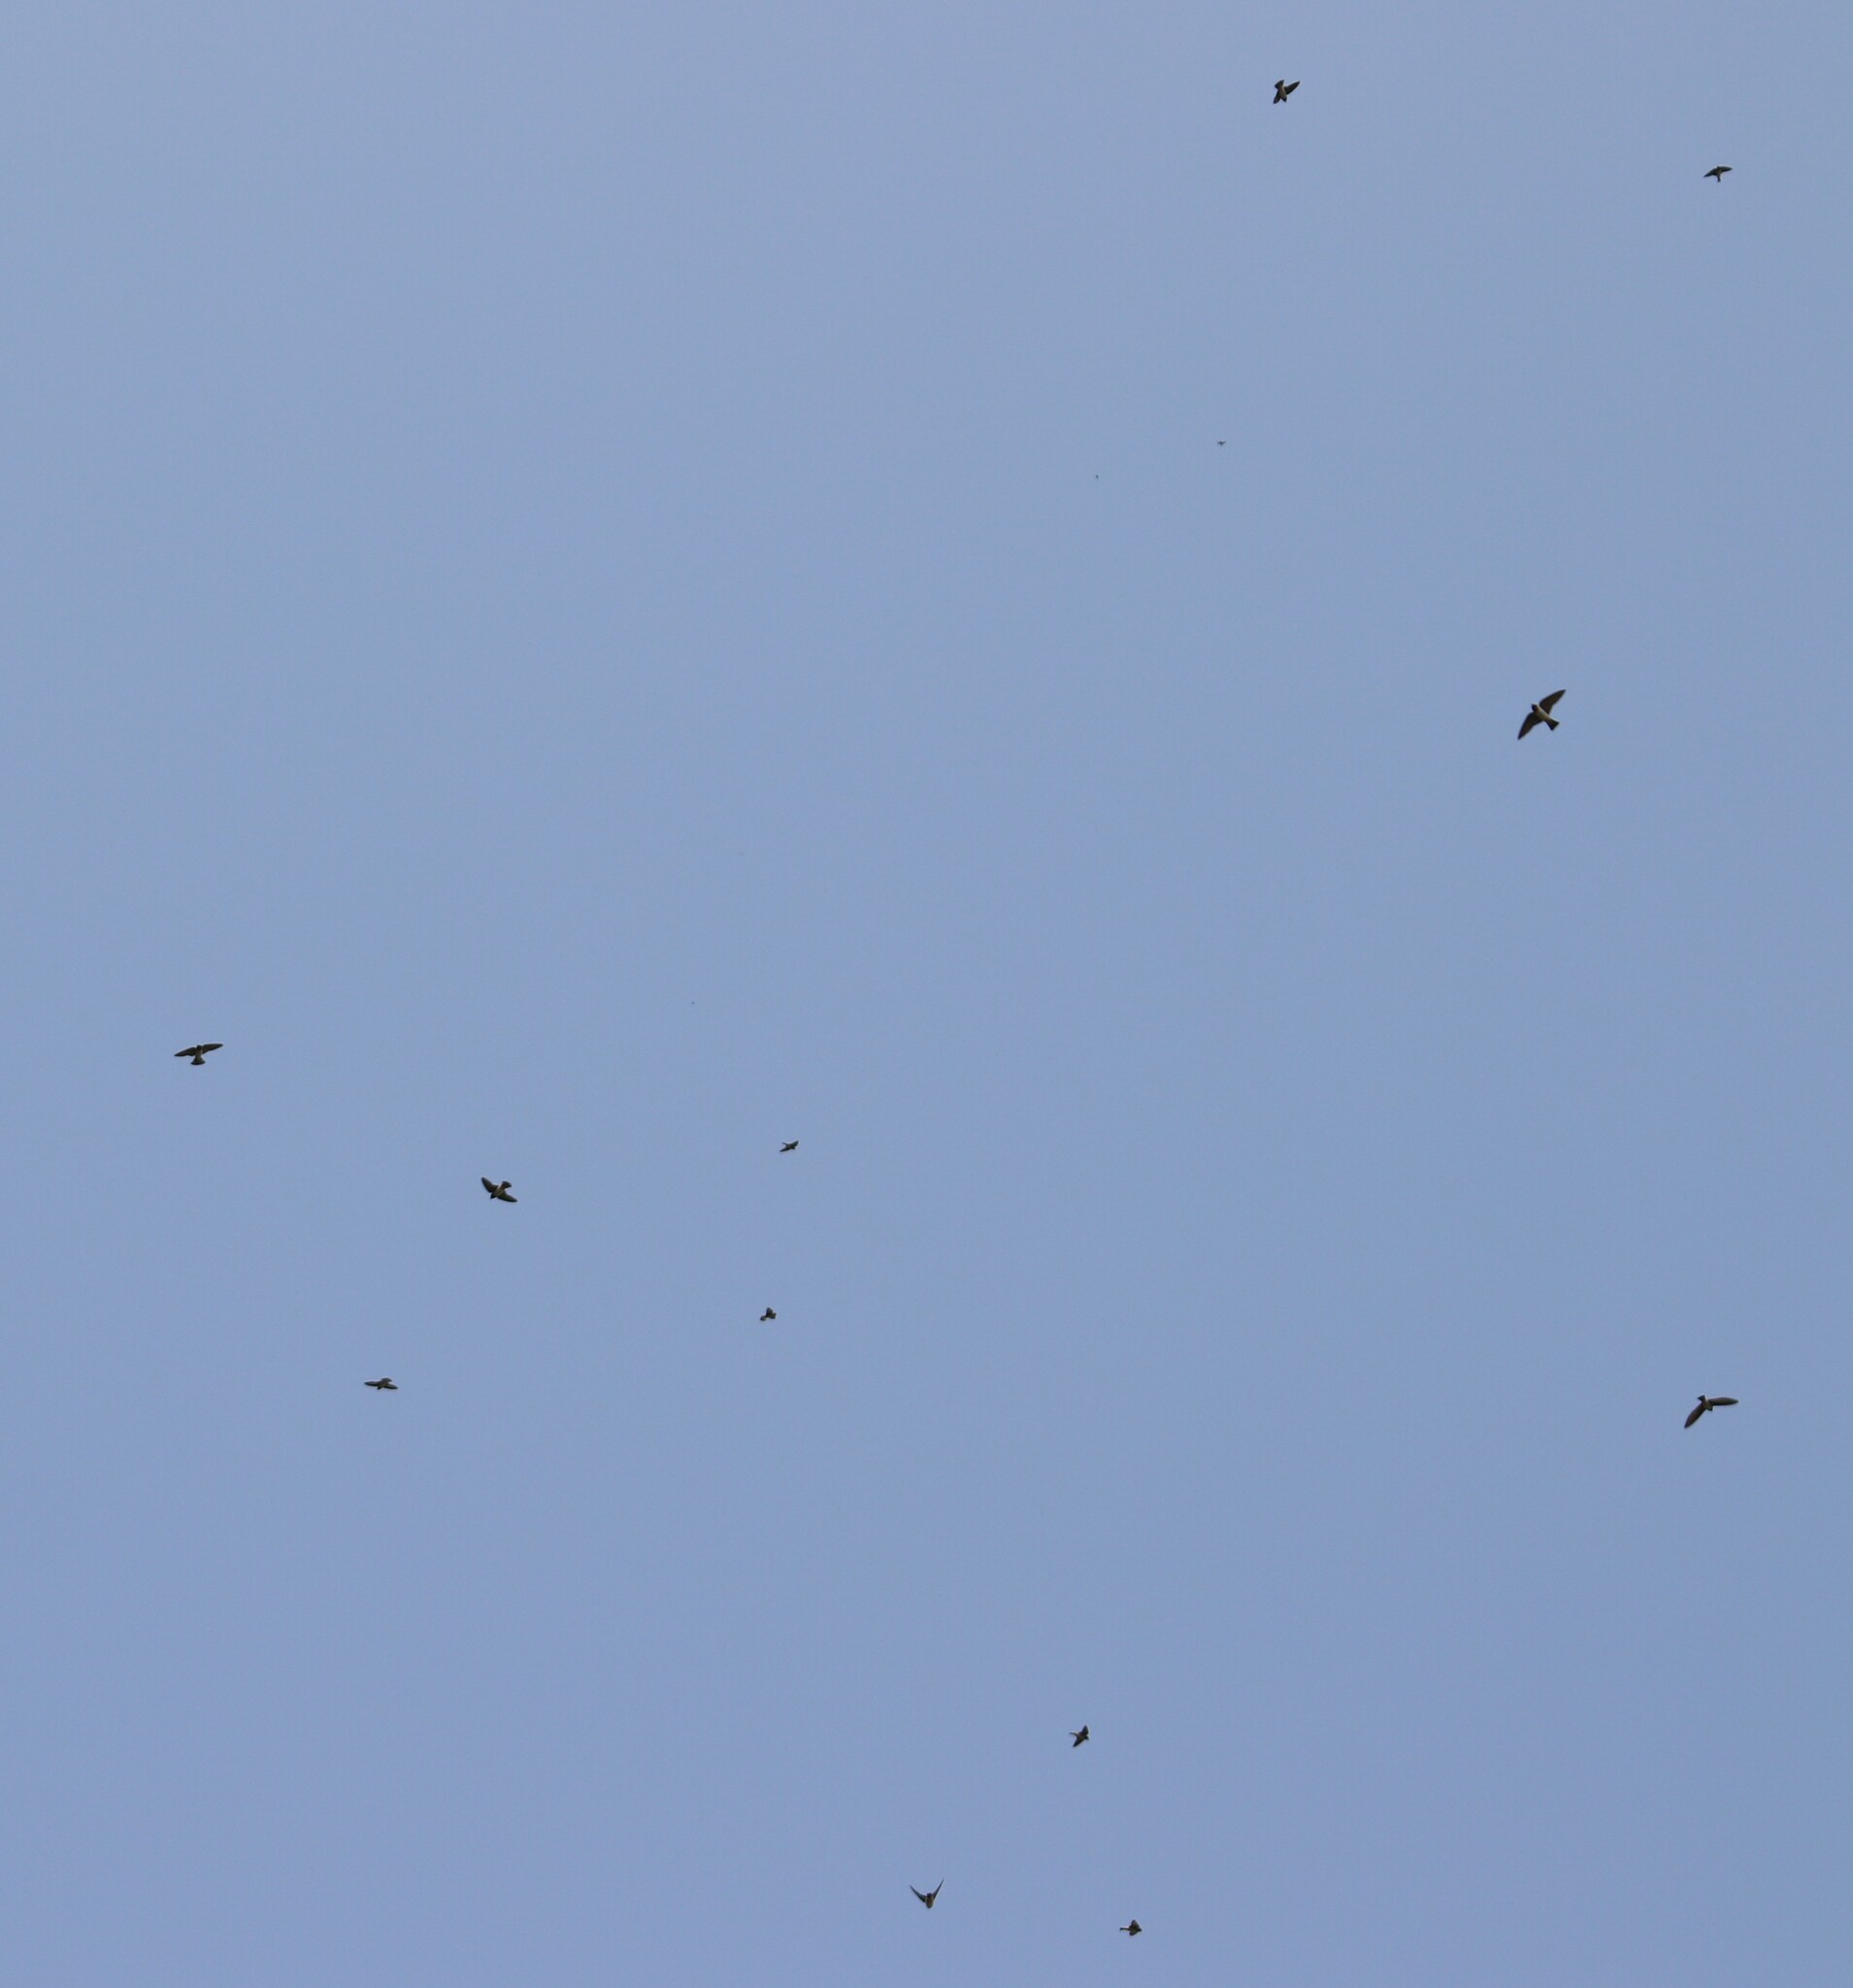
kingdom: Animalia
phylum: Chordata
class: Aves
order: Passeriformes
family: Hirundinidae
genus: Petrochelidon
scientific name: Petrochelidon pyrrhonota
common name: American cliff swallow
